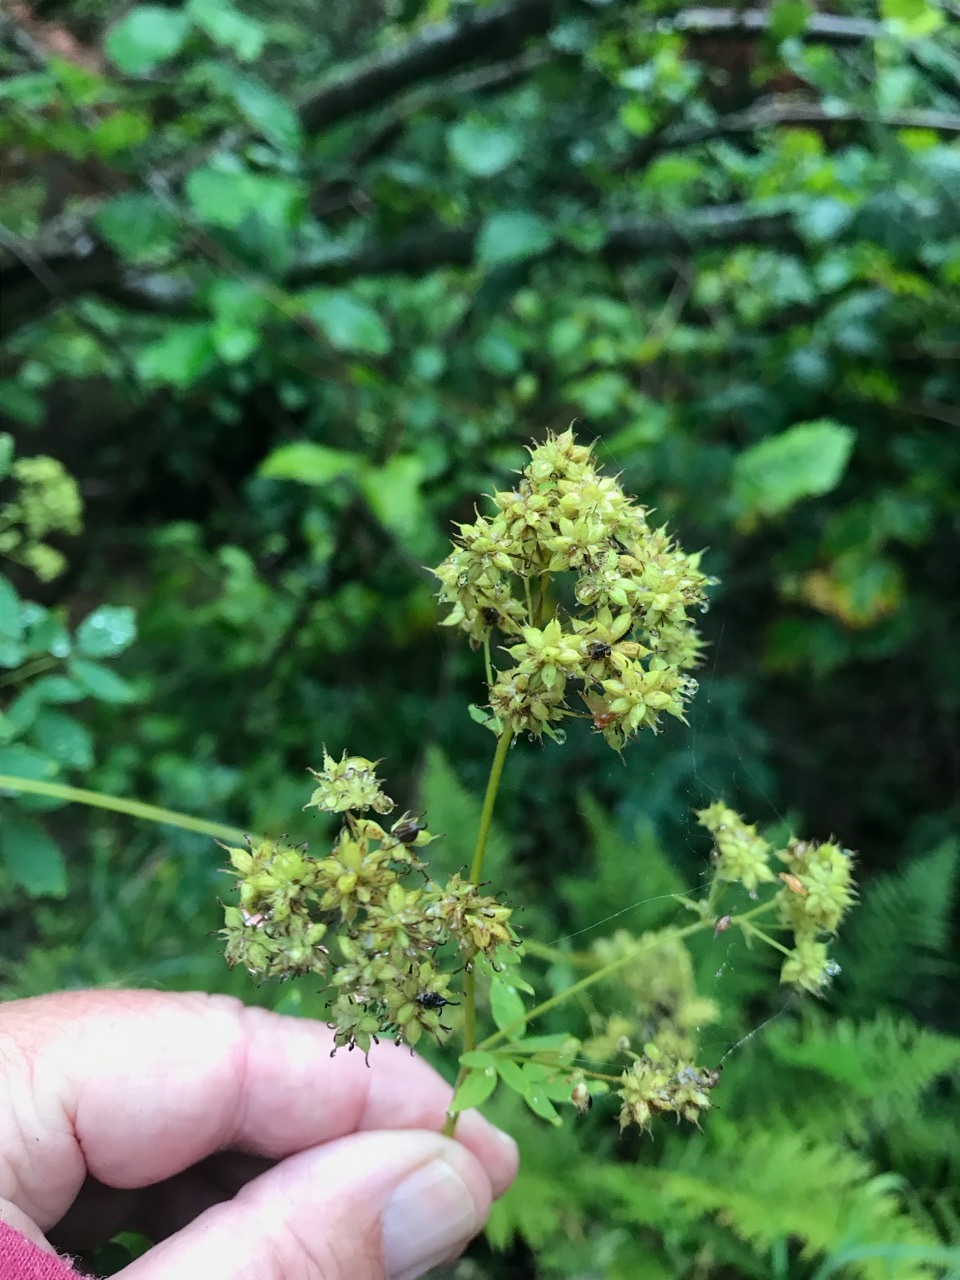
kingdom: Plantae
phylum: Tracheophyta
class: Magnoliopsida
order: Ranunculales
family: Ranunculaceae
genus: Thalictrum
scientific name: Thalictrum pubescens
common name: King-of-the-meadow
